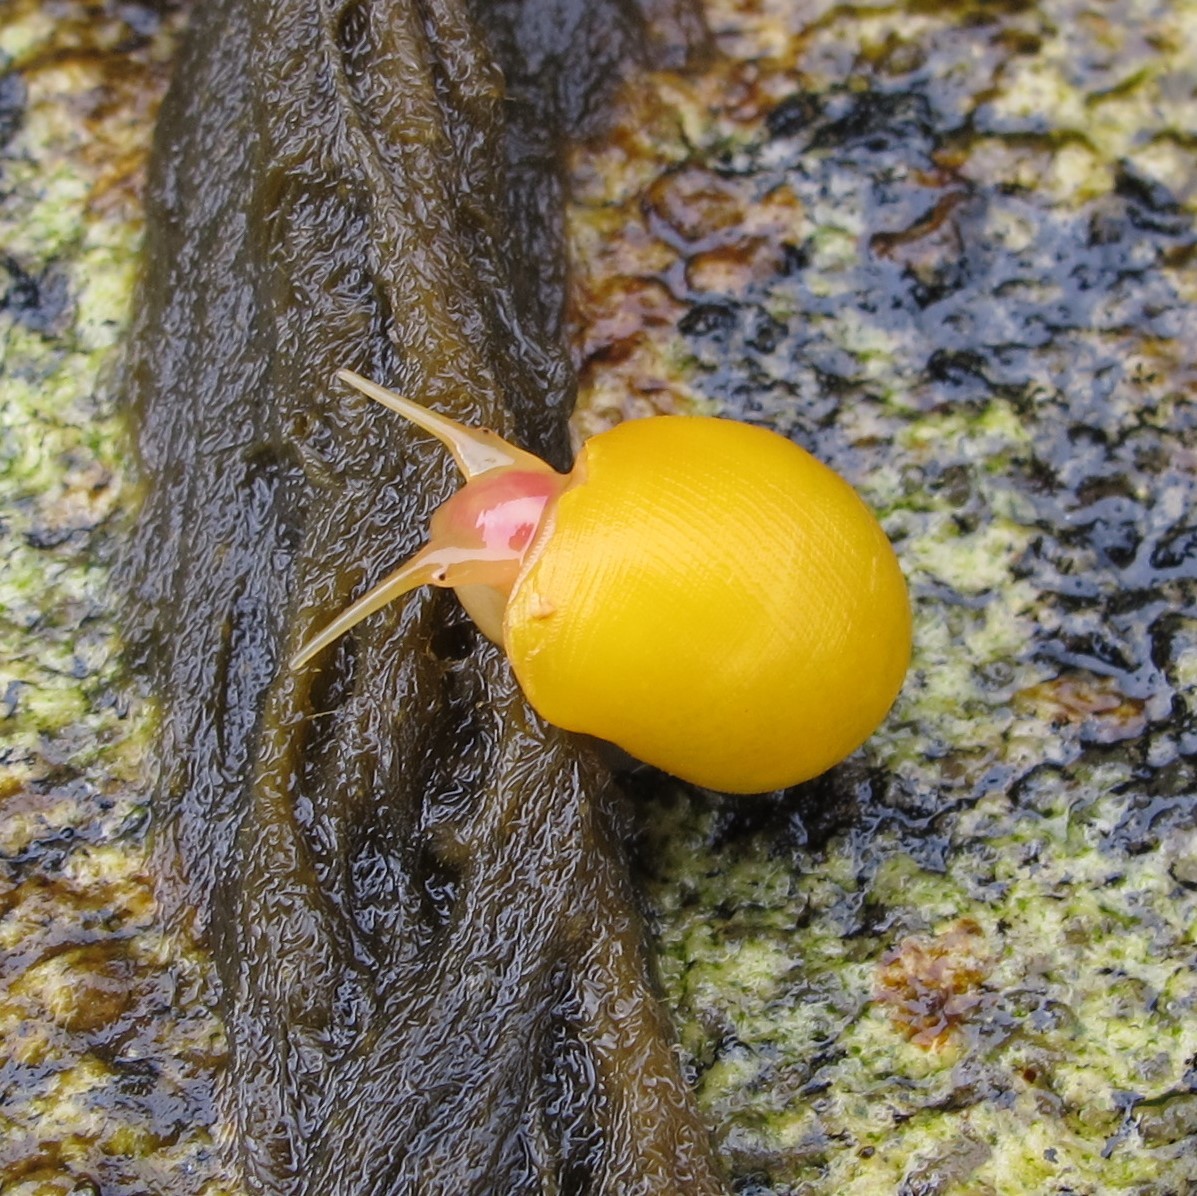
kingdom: Animalia
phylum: Mollusca
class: Gastropoda
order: Littorinimorpha
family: Littorinidae
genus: Littorina
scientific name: Littorina obtusata
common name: Flat periwinkle
